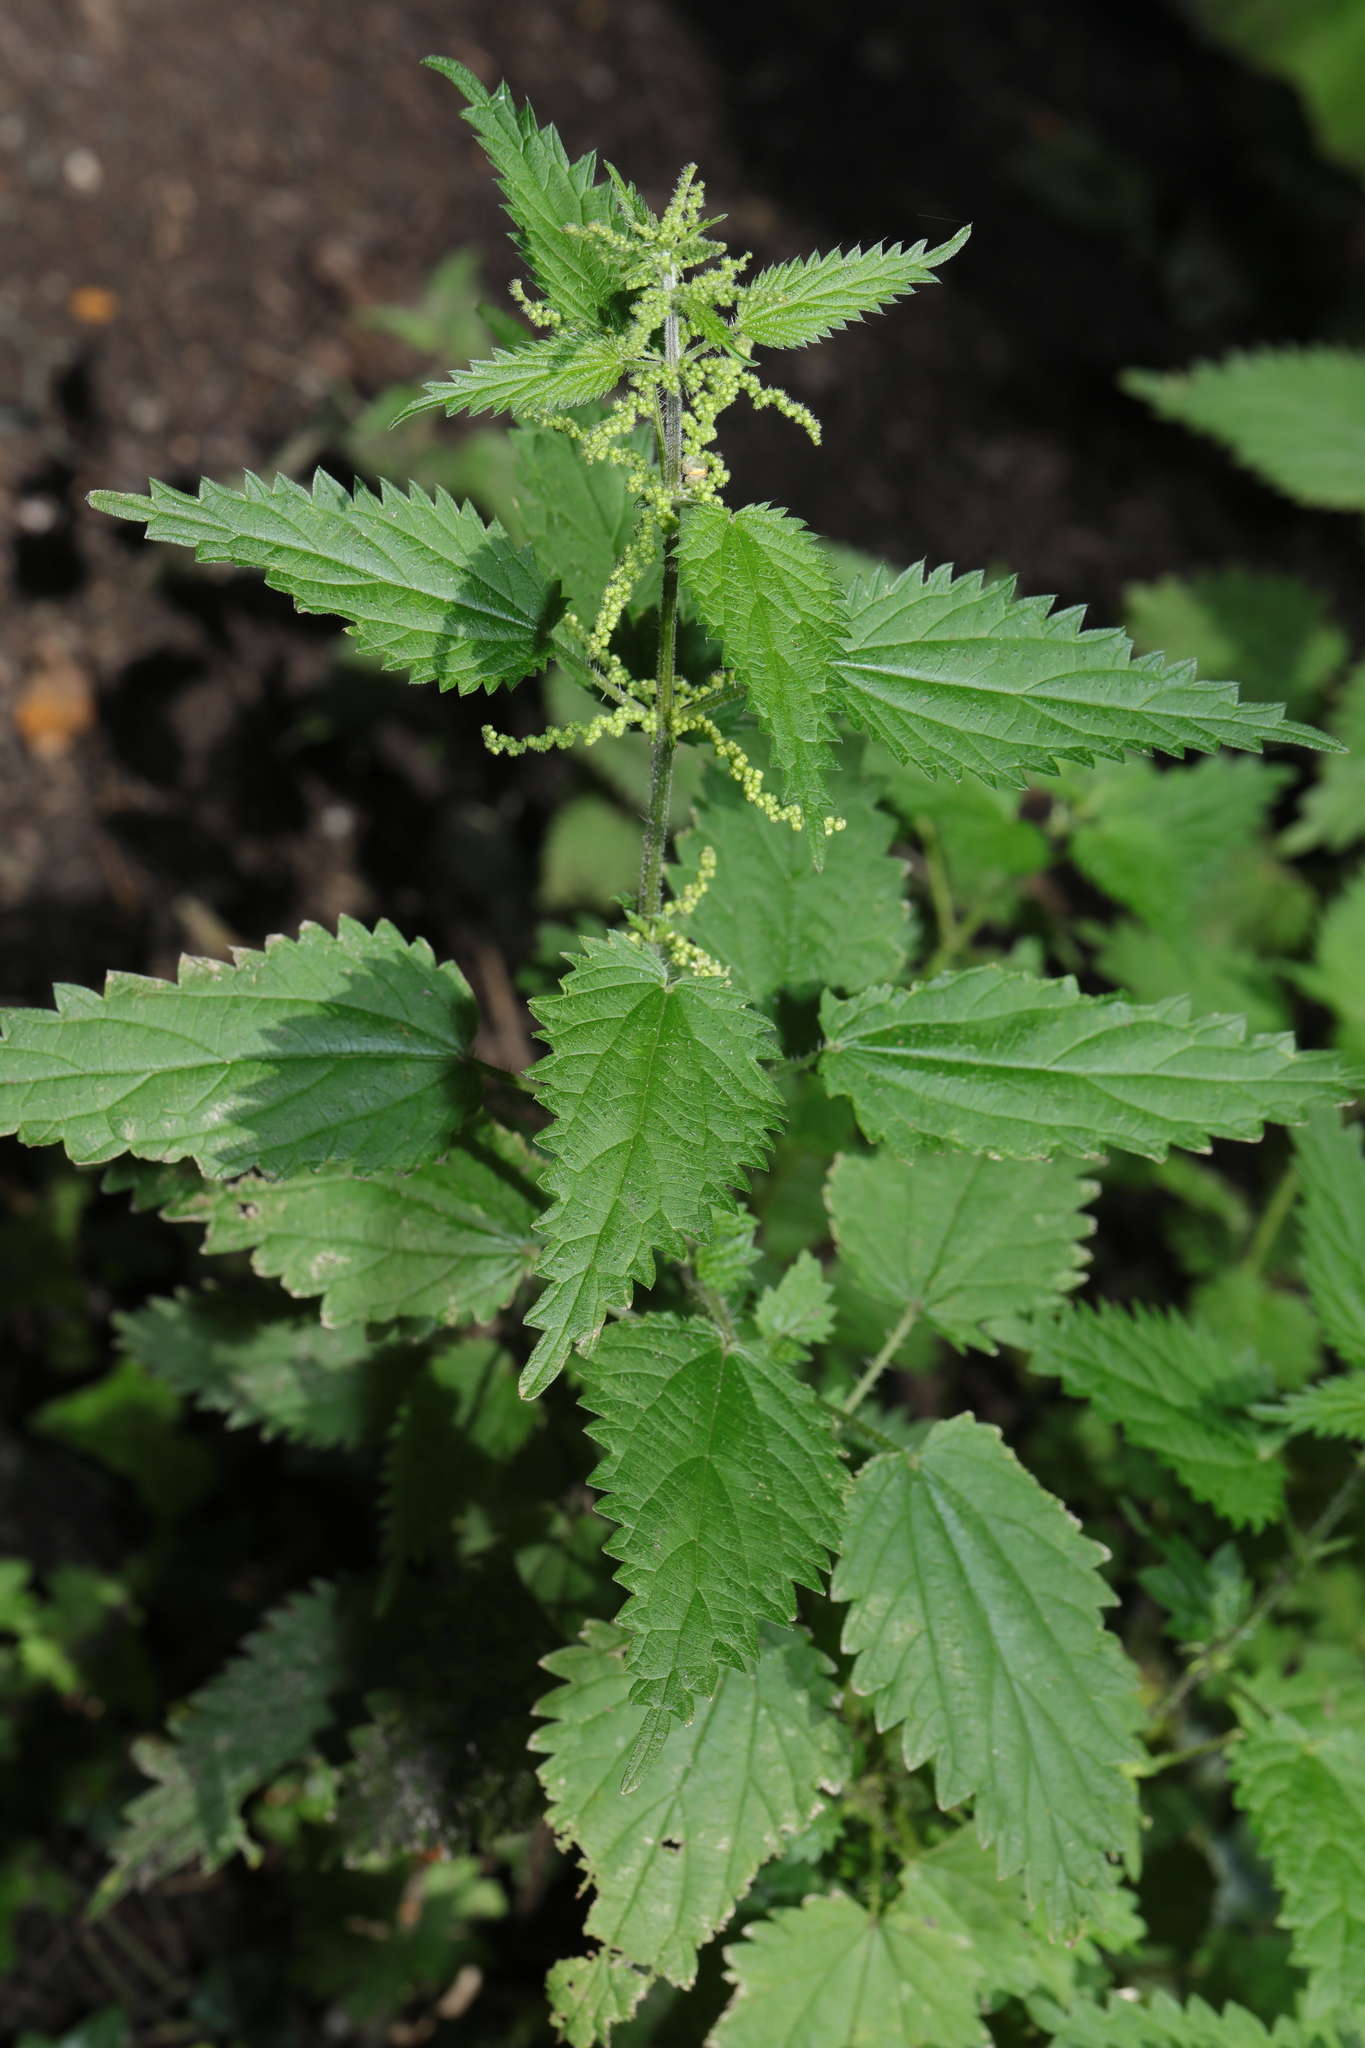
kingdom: Plantae
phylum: Tracheophyta
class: Magnoliopsida
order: Rosales
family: Urticaceae
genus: Urtica
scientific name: Urtica dioica
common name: Common nettle
